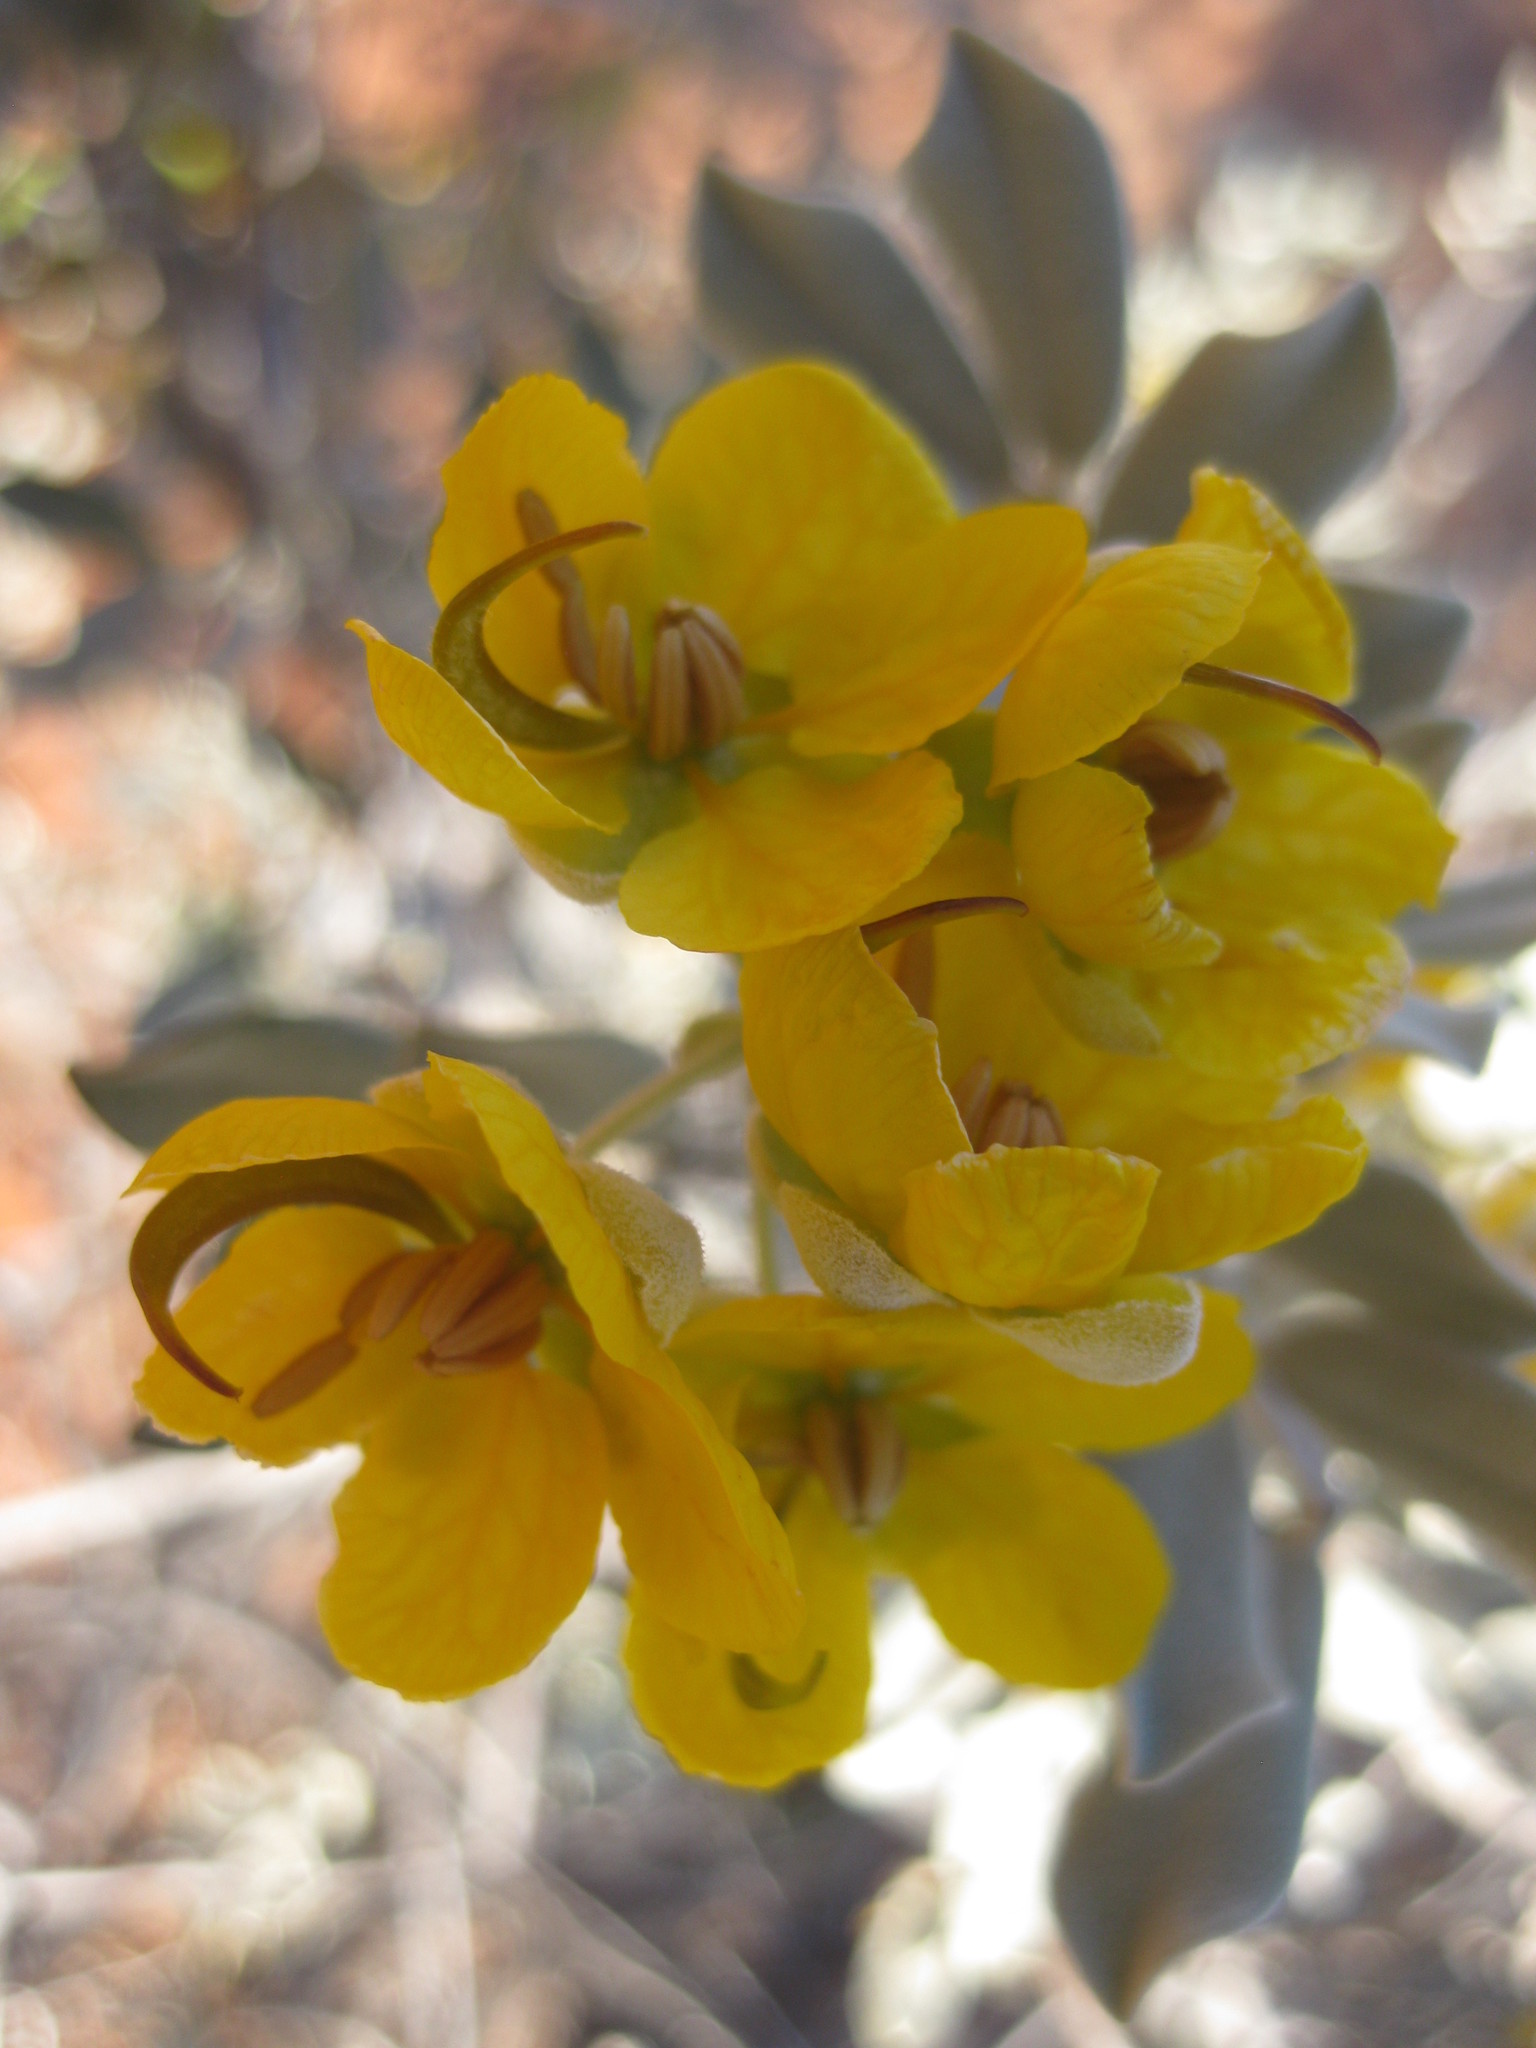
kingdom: Plantae
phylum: Tracheophyta
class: Magnoliopsida
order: Fabales
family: Fabaceae
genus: Senna
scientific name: Senna artemisioides
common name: Burnt-leaved acacia
